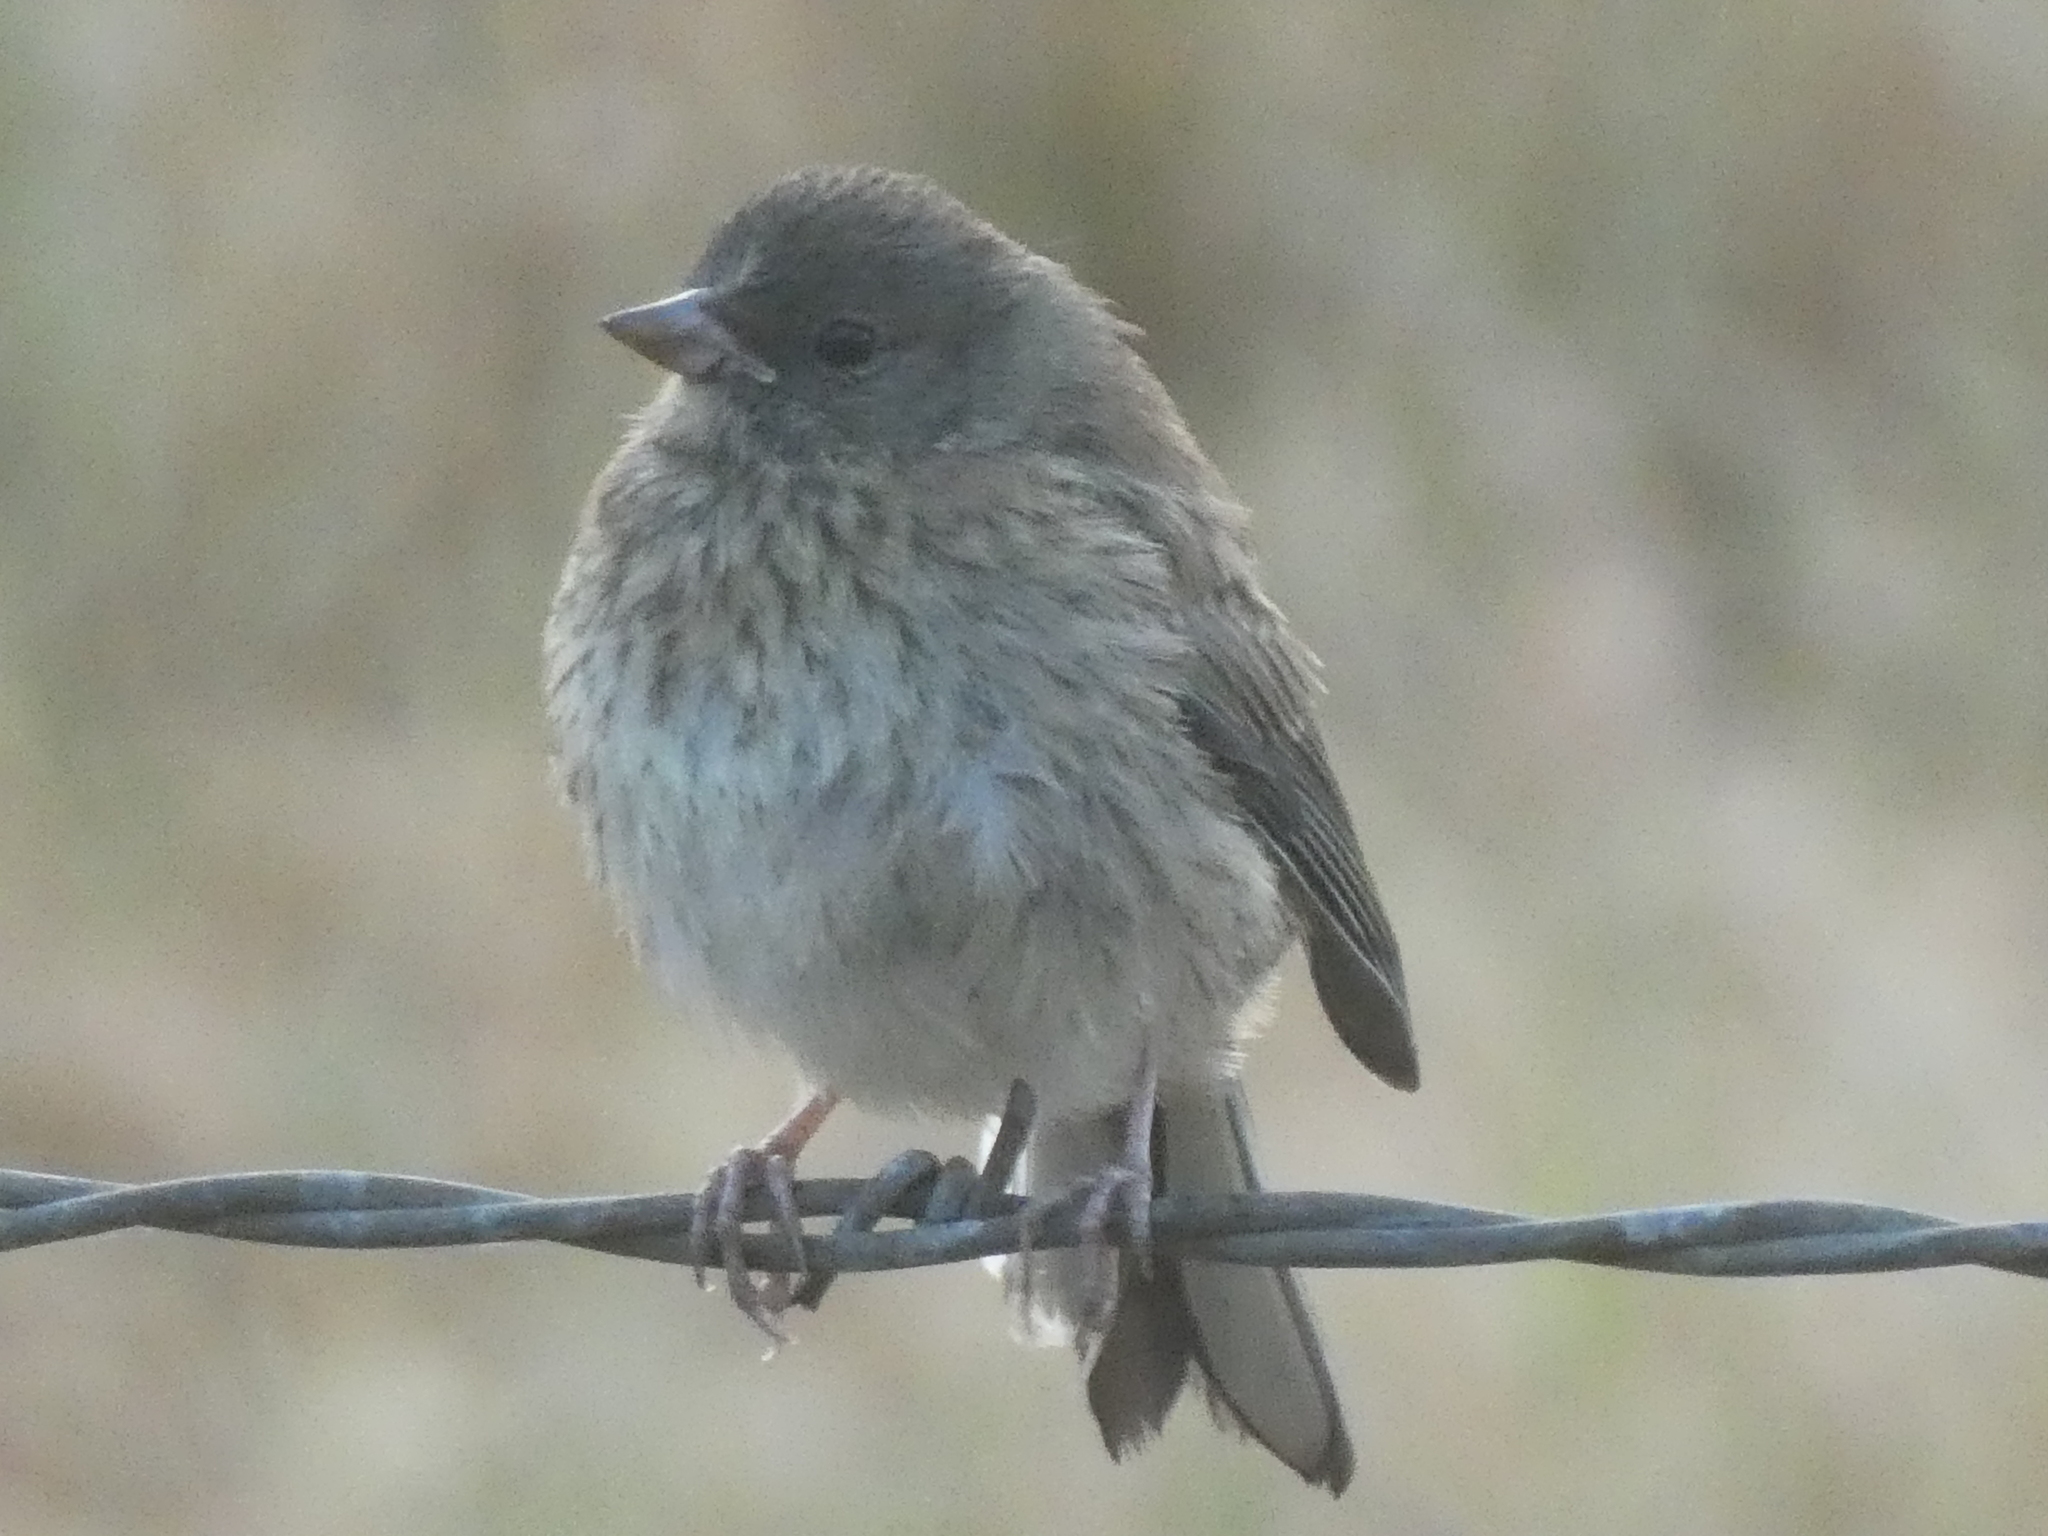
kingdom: Animalia
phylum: Chordata
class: Aves
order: Passeriformes
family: Passerellidae
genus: Junco
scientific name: Junco hyemalis
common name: Dark-eyed junco
